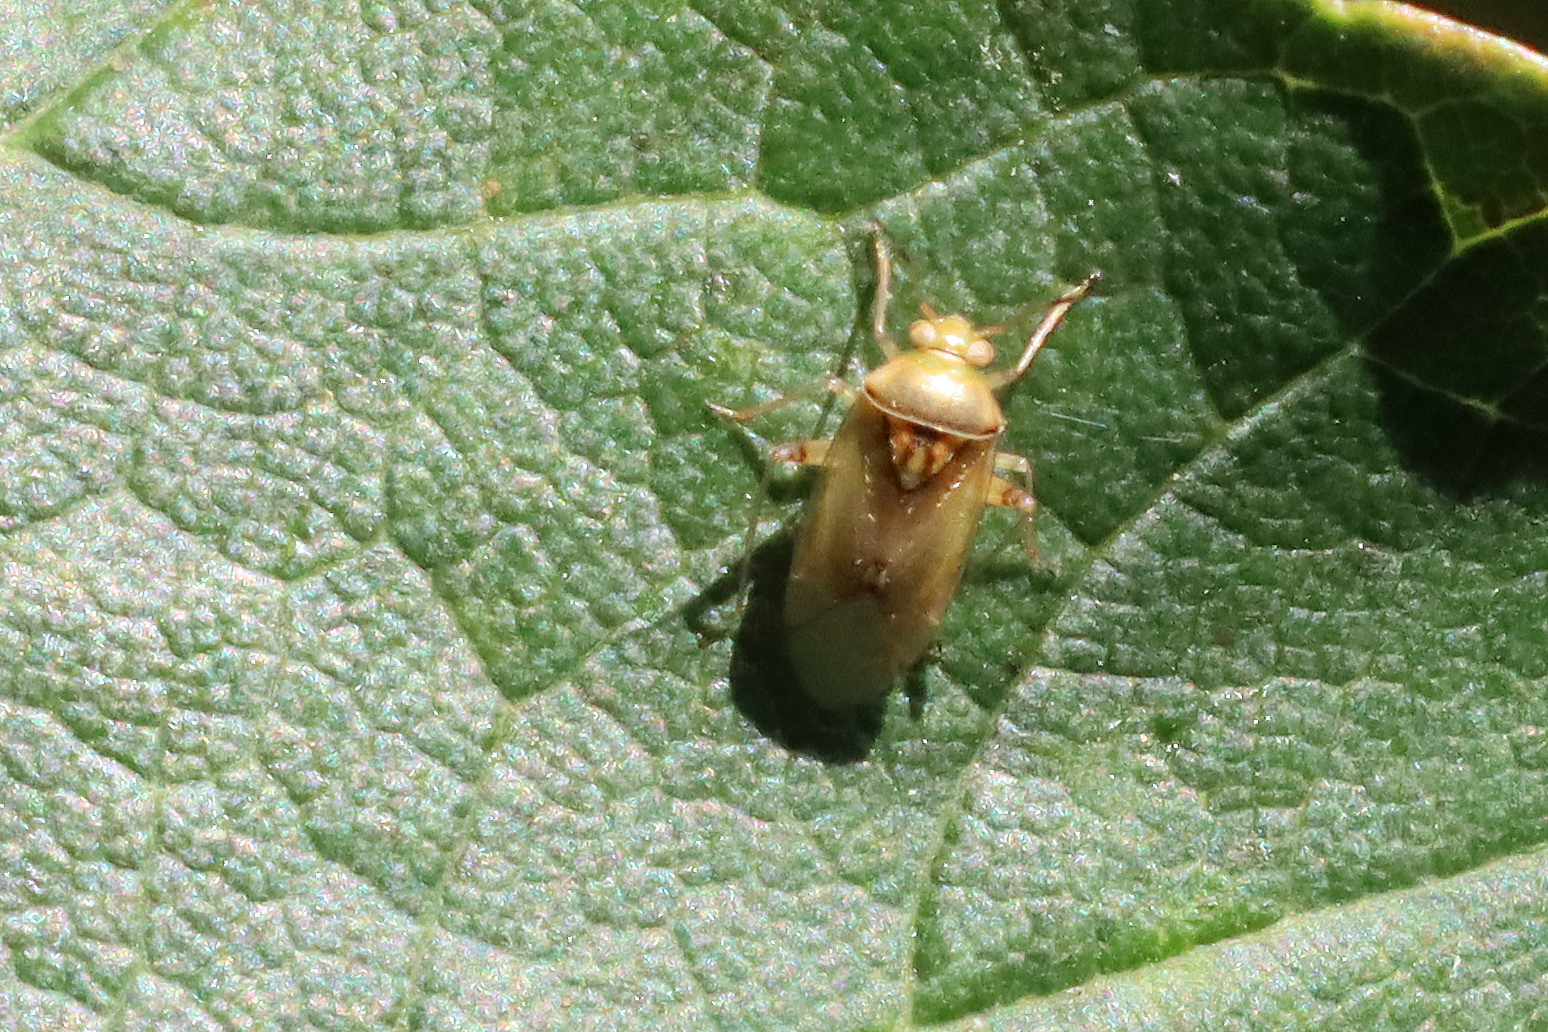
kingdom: Animalia
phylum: Arthropoda
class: Insecta
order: Hemiptera
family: Miridae
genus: Pinalitus
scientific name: Pinalitus cervinus
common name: Plant bug
